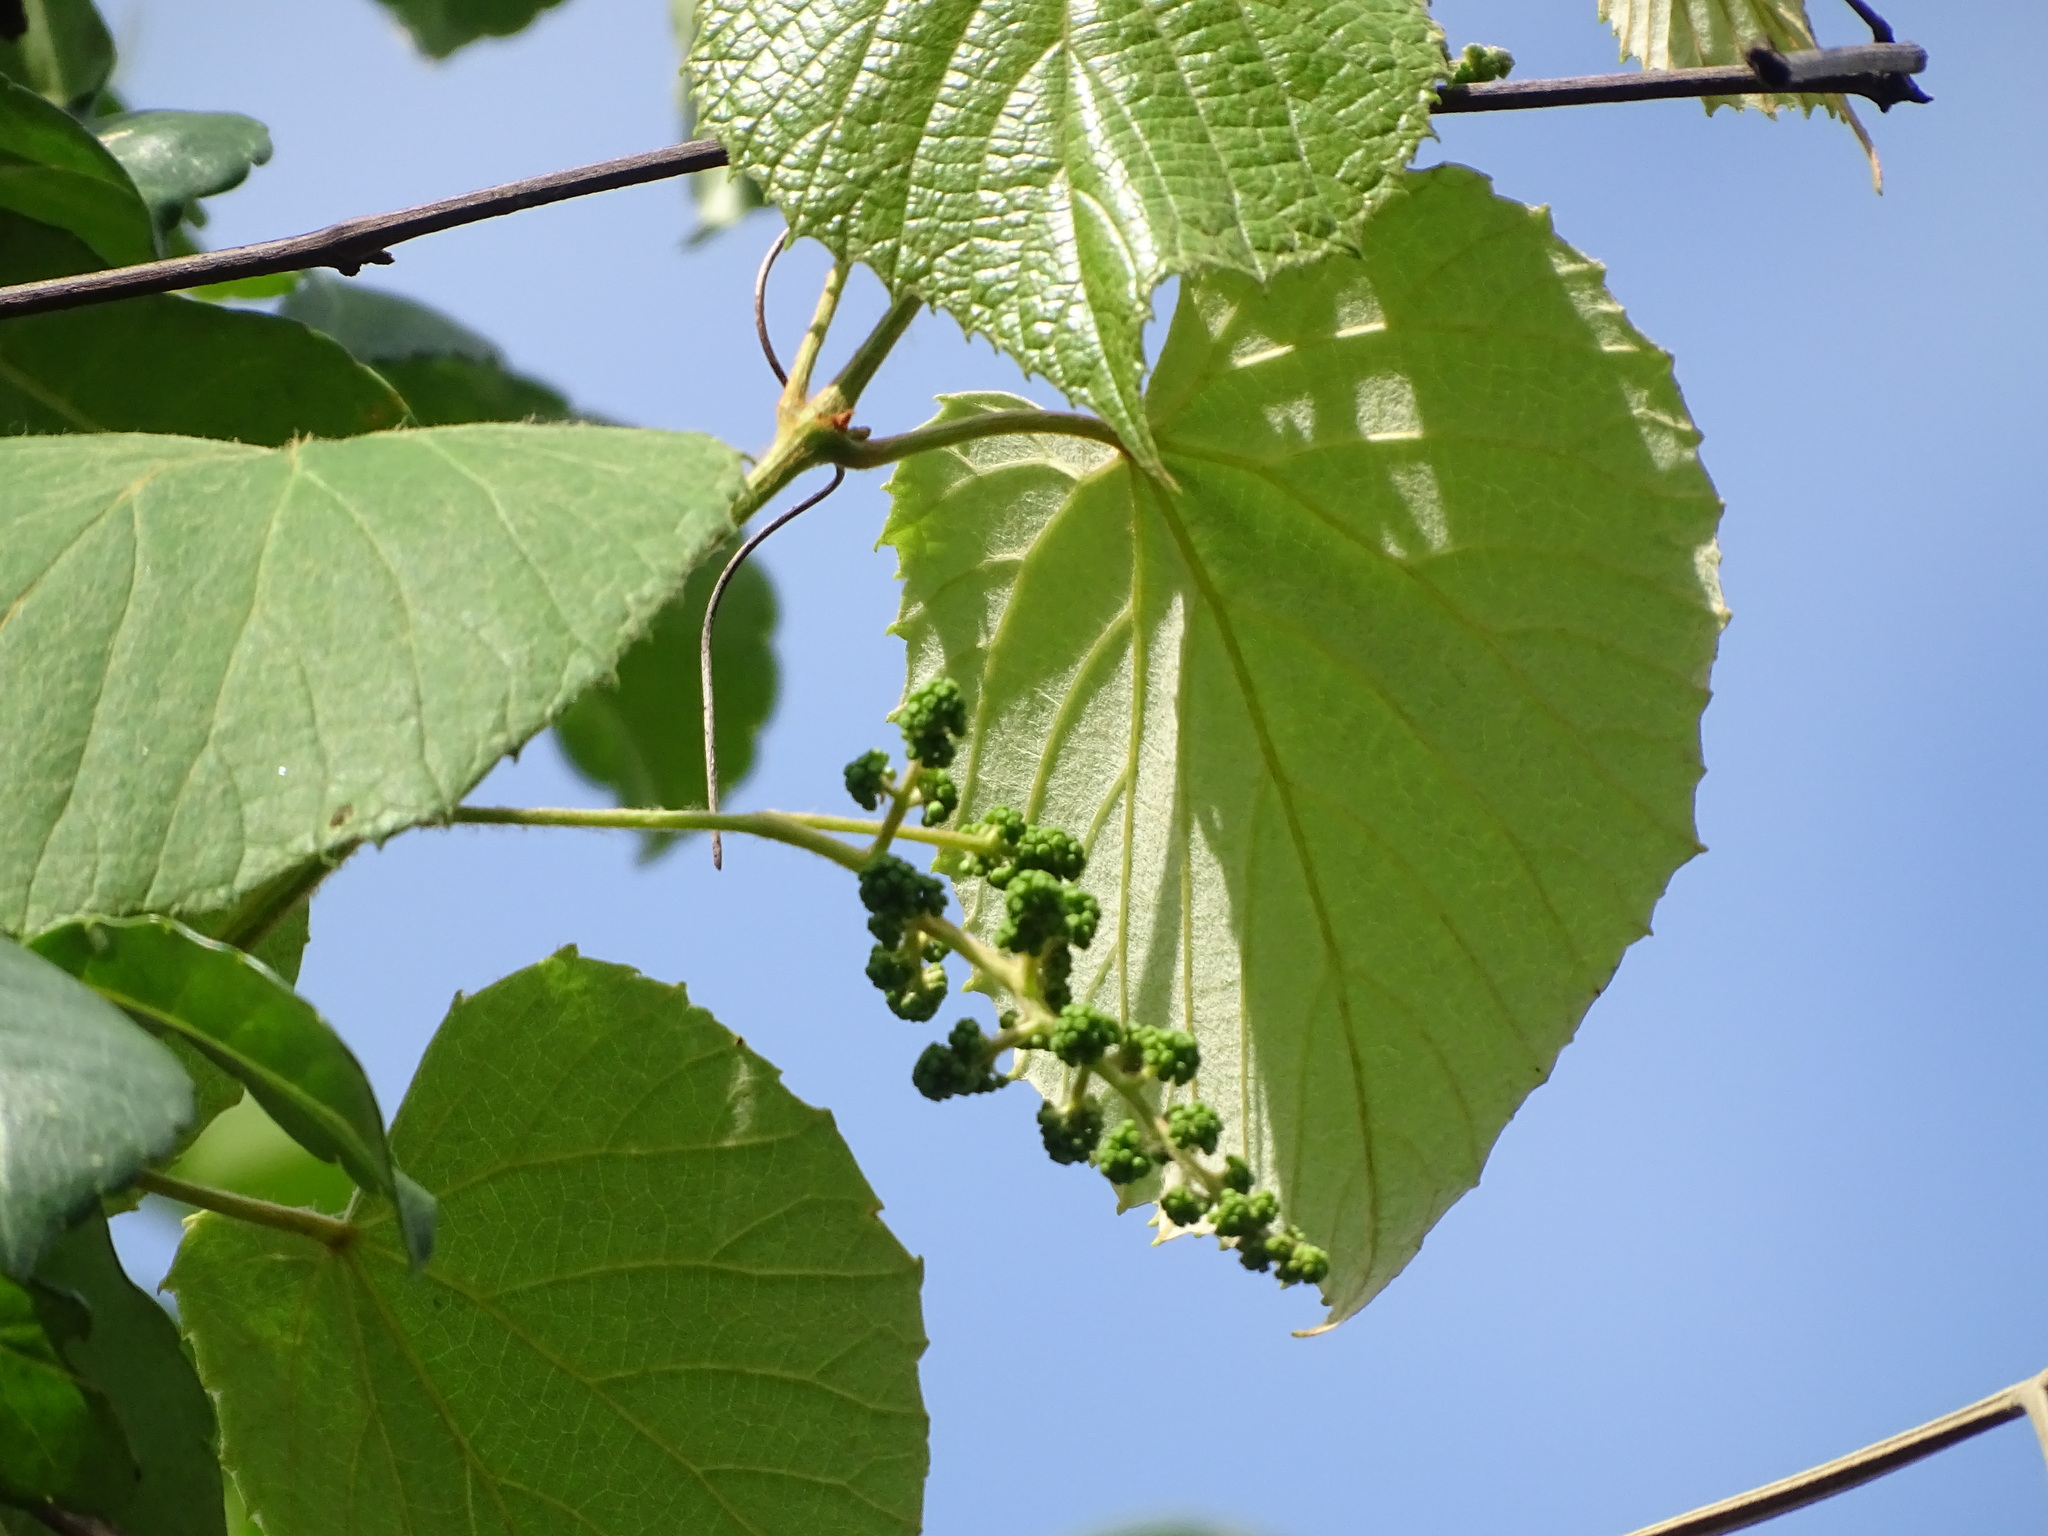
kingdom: Plantae
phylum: Tracheophyta
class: Magnoliopsida
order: Vitales
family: Vitaceae
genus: Vitis
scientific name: Vitis tiliifolia
